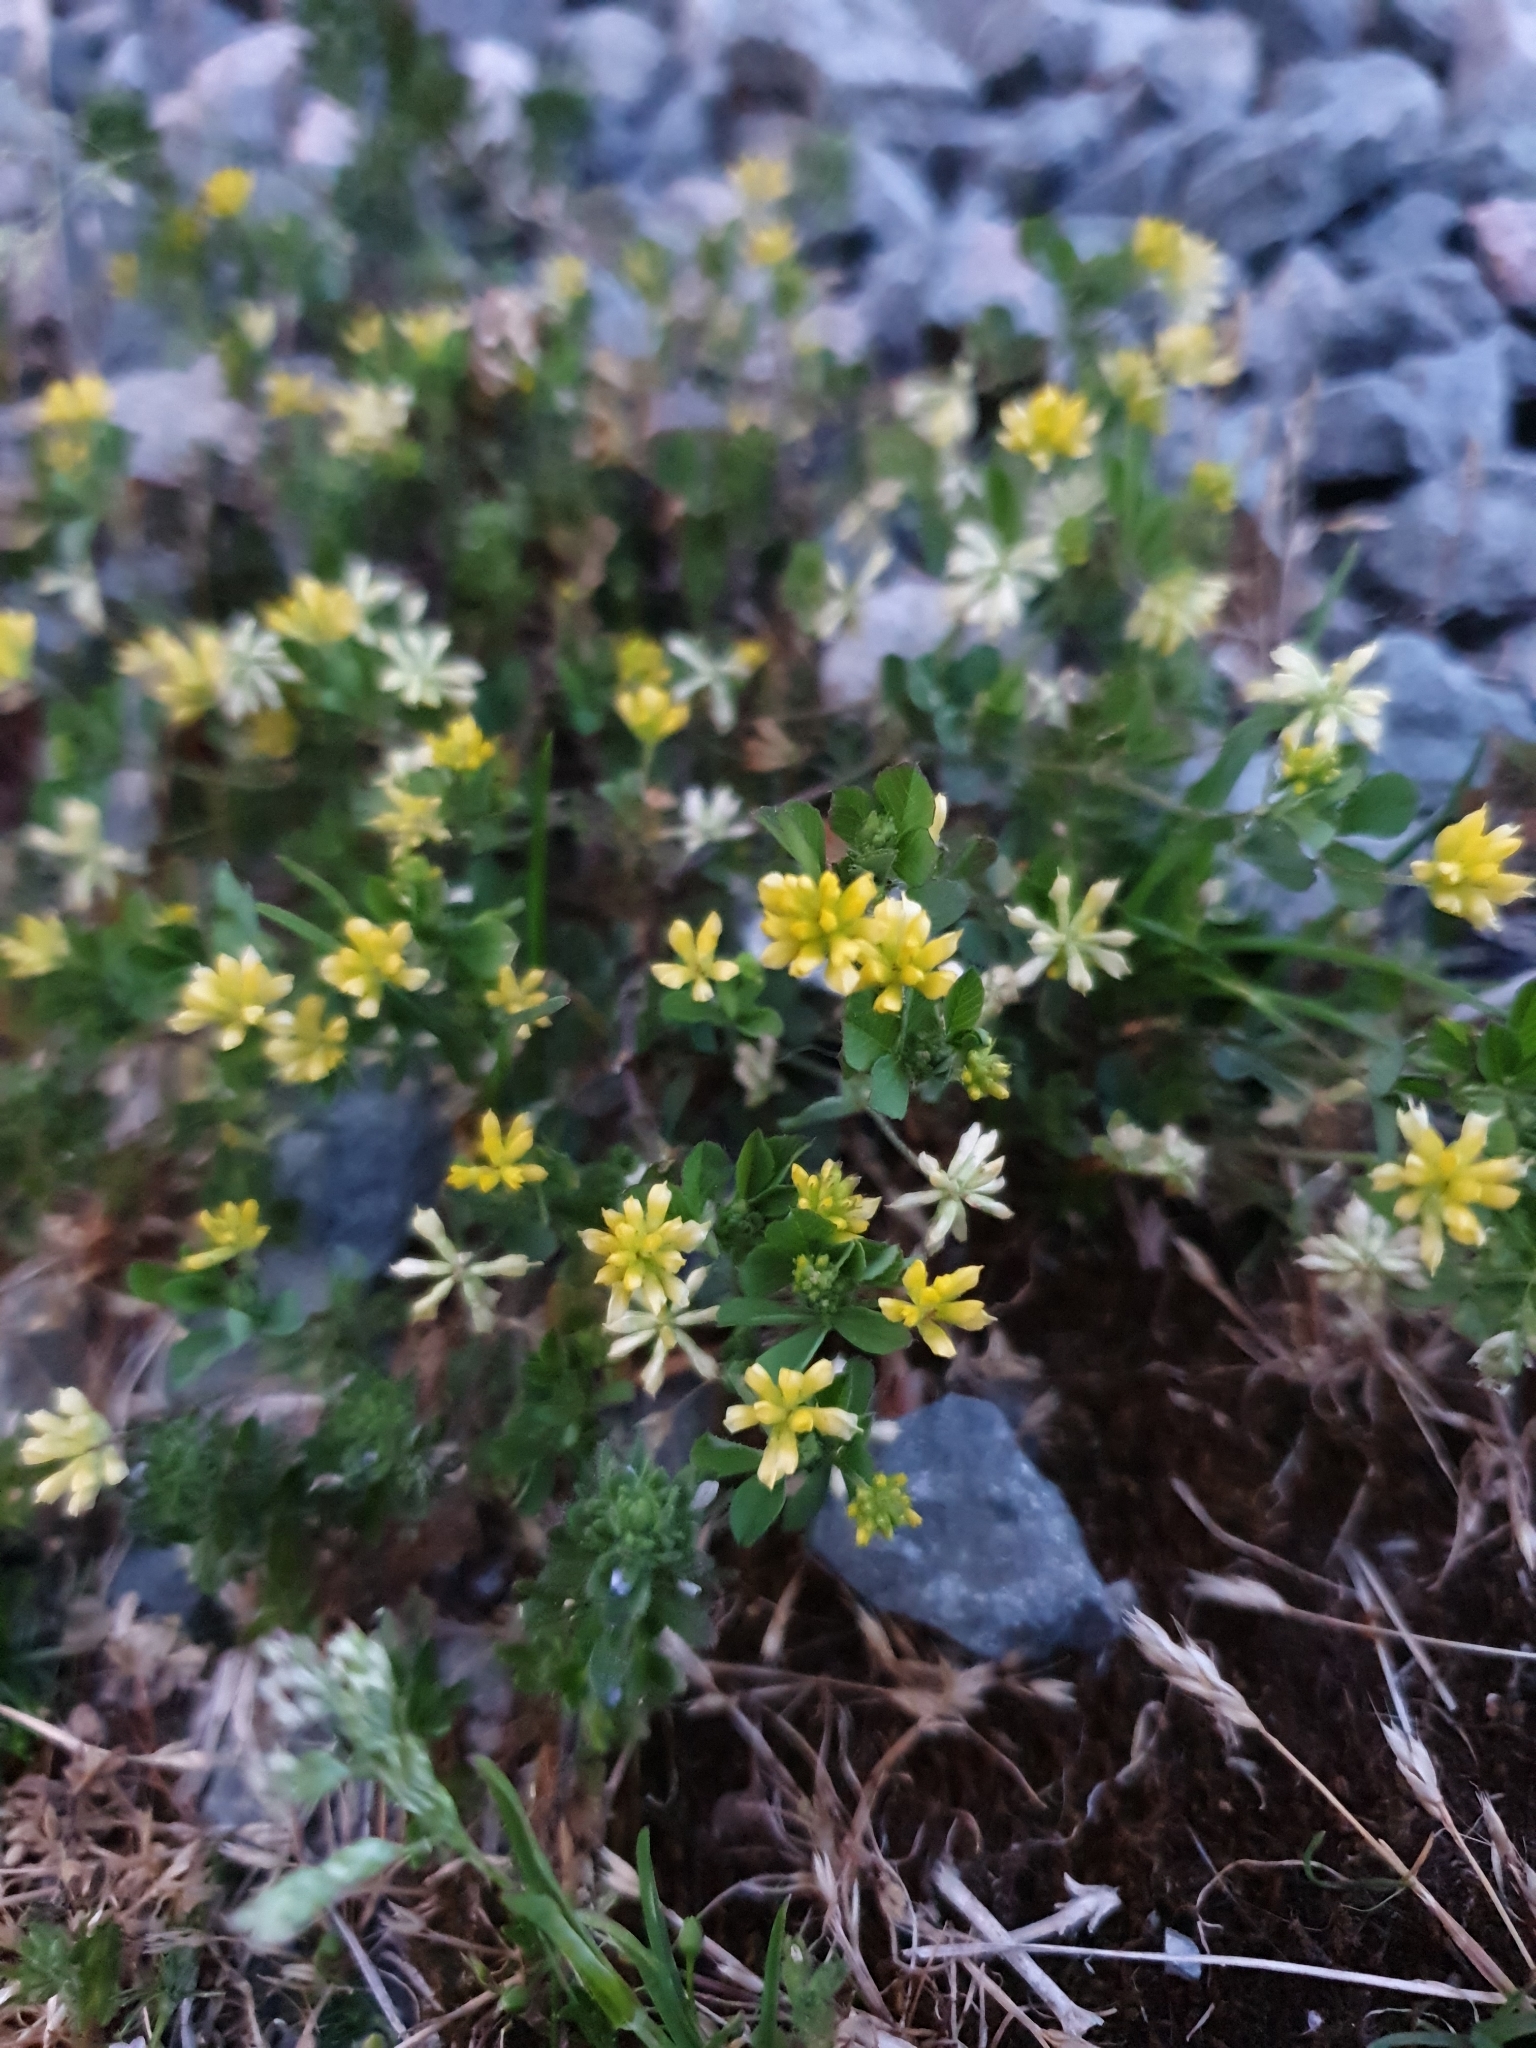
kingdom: Plantae
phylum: Tracheophyta
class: Magnoliopsida
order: Fabales
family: Fabaceae
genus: Trifolium
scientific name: Trifolium dubium
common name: Suckling clover
